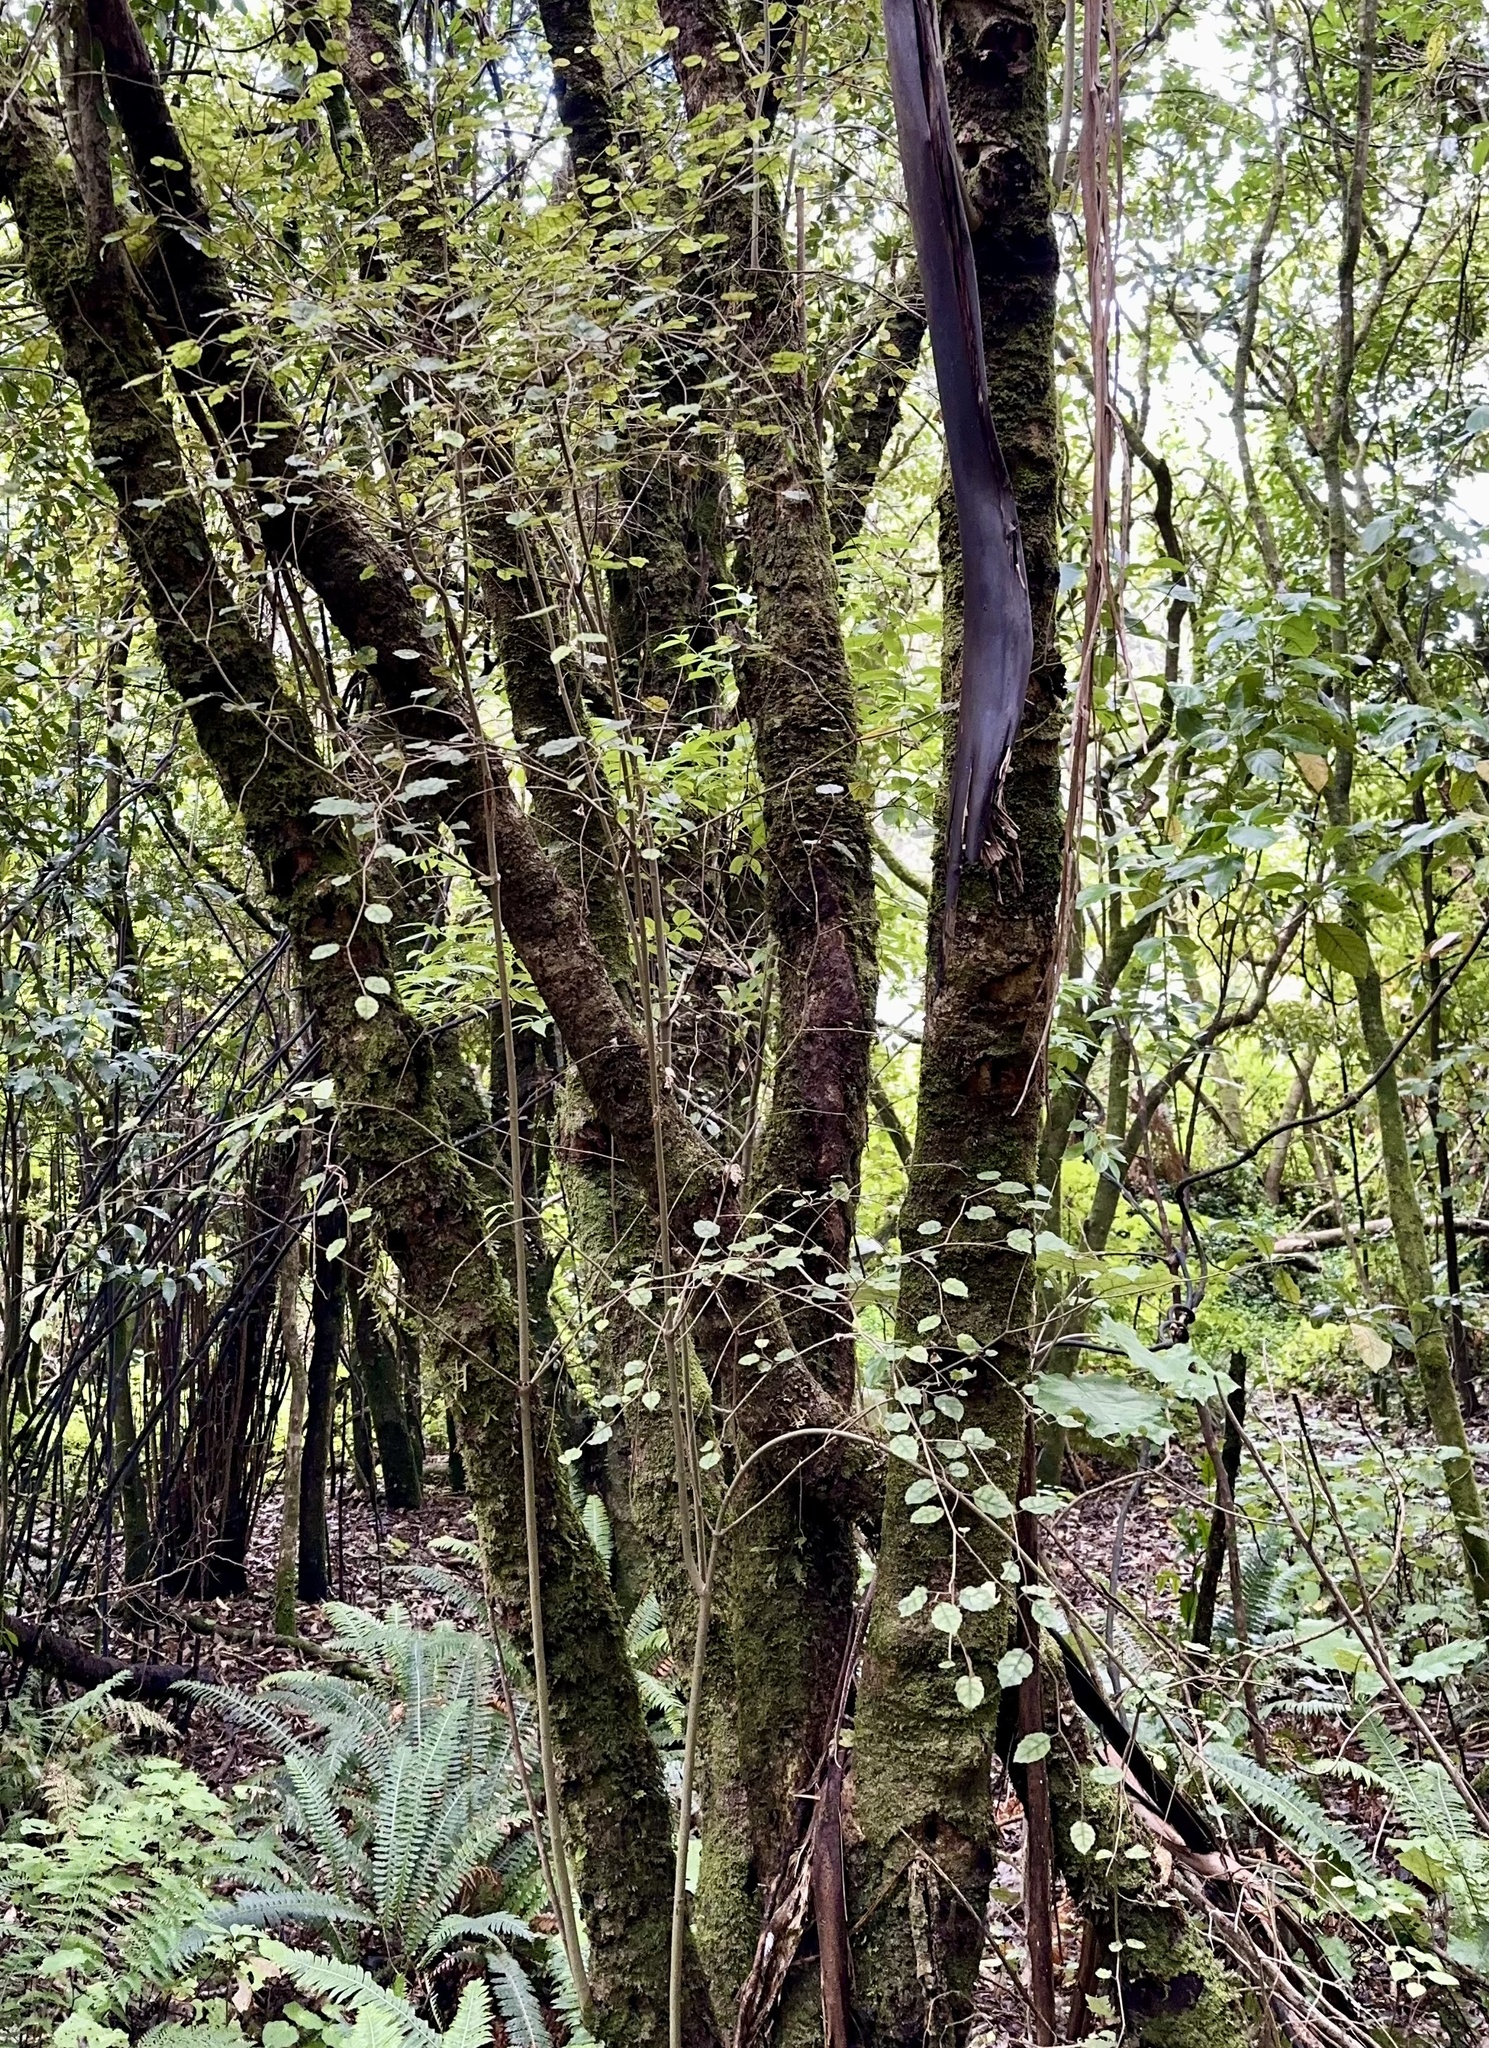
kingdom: Plantae
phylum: Tracheophyta
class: Magnoliopsida
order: Asterales
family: Rousseaceae
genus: Carpodetus
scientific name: Carpodetus serratus
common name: White mapau
